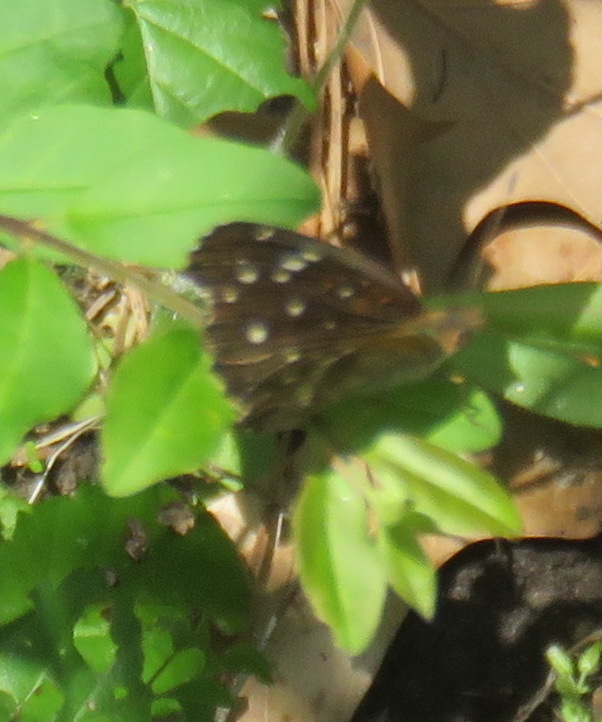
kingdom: Animalia
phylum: Arthropoda
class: Insecta
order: Lepidoptera
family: Nymphalidae
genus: Anthanassa
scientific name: Anthanassa texana
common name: Texan crescent
